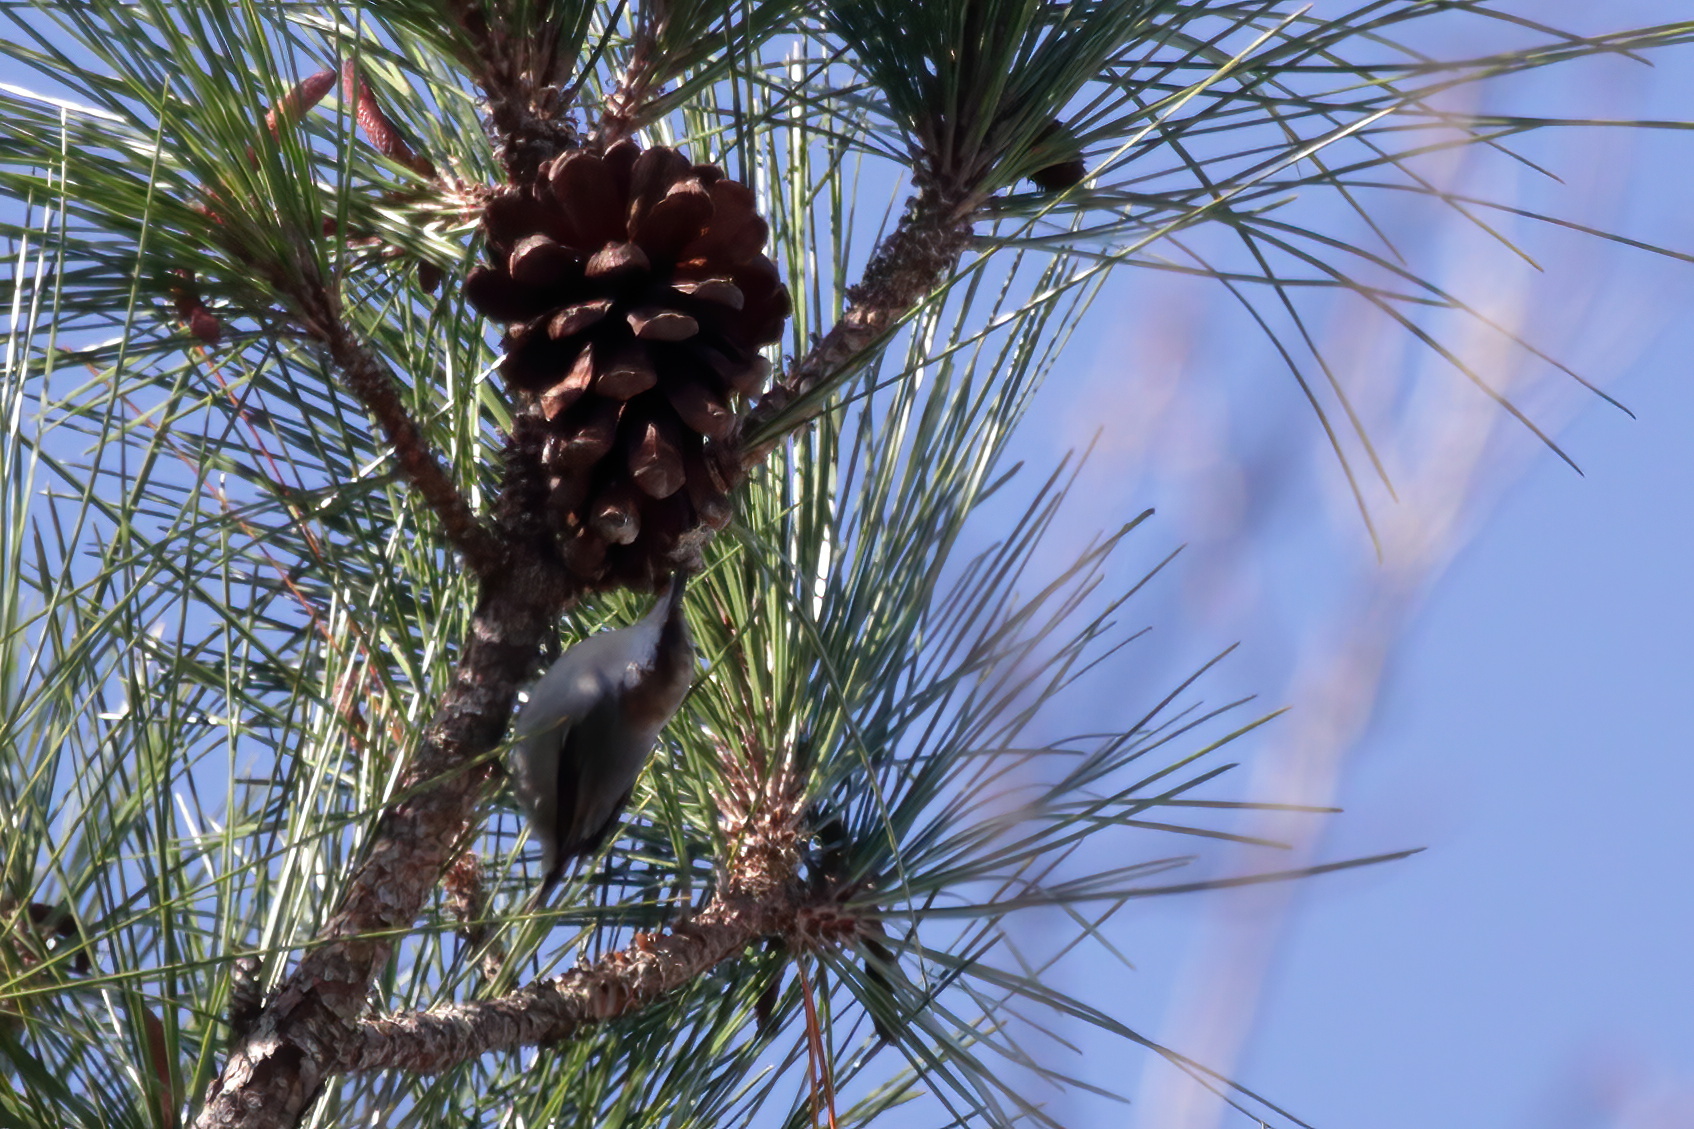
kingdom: Animalia
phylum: Chordata
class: Aves
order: Passeriformes
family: Sittidae
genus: Sitta
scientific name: Sitta pusilla
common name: Brown-headed nuthatch
